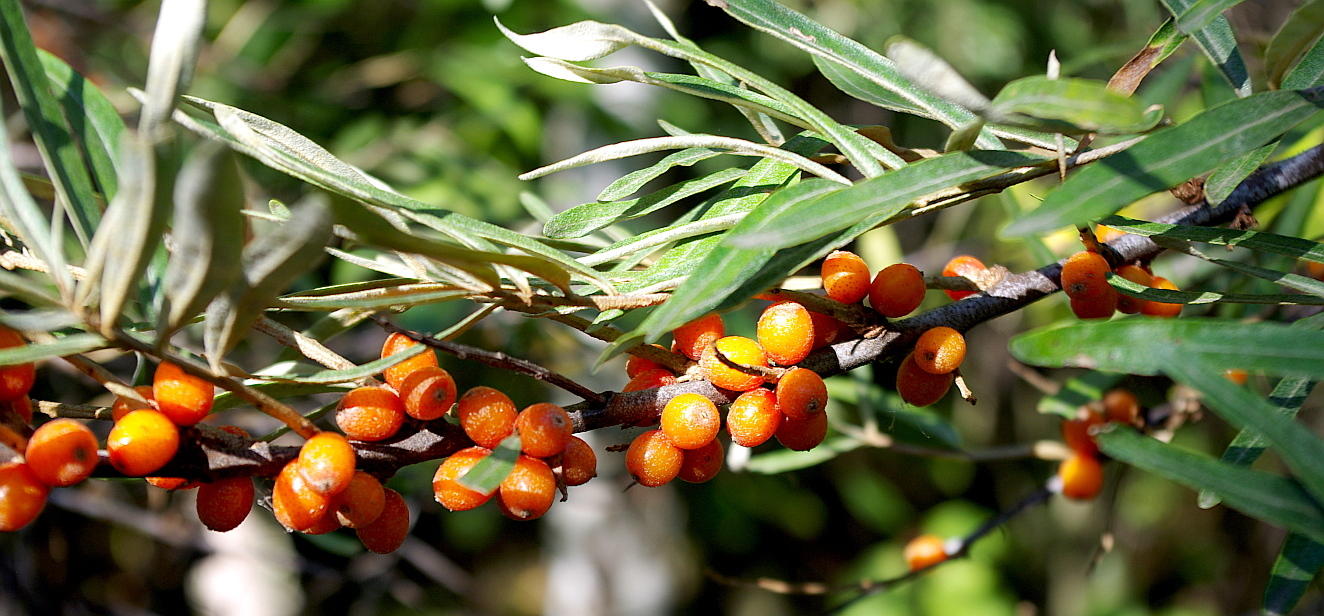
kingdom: Plantae
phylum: Tracheophyta
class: Magnoliopsida
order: Rosales
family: Elaeagnaceae
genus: Hippophae
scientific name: Hippophae rhamnoides
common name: Sea-buckthorn
